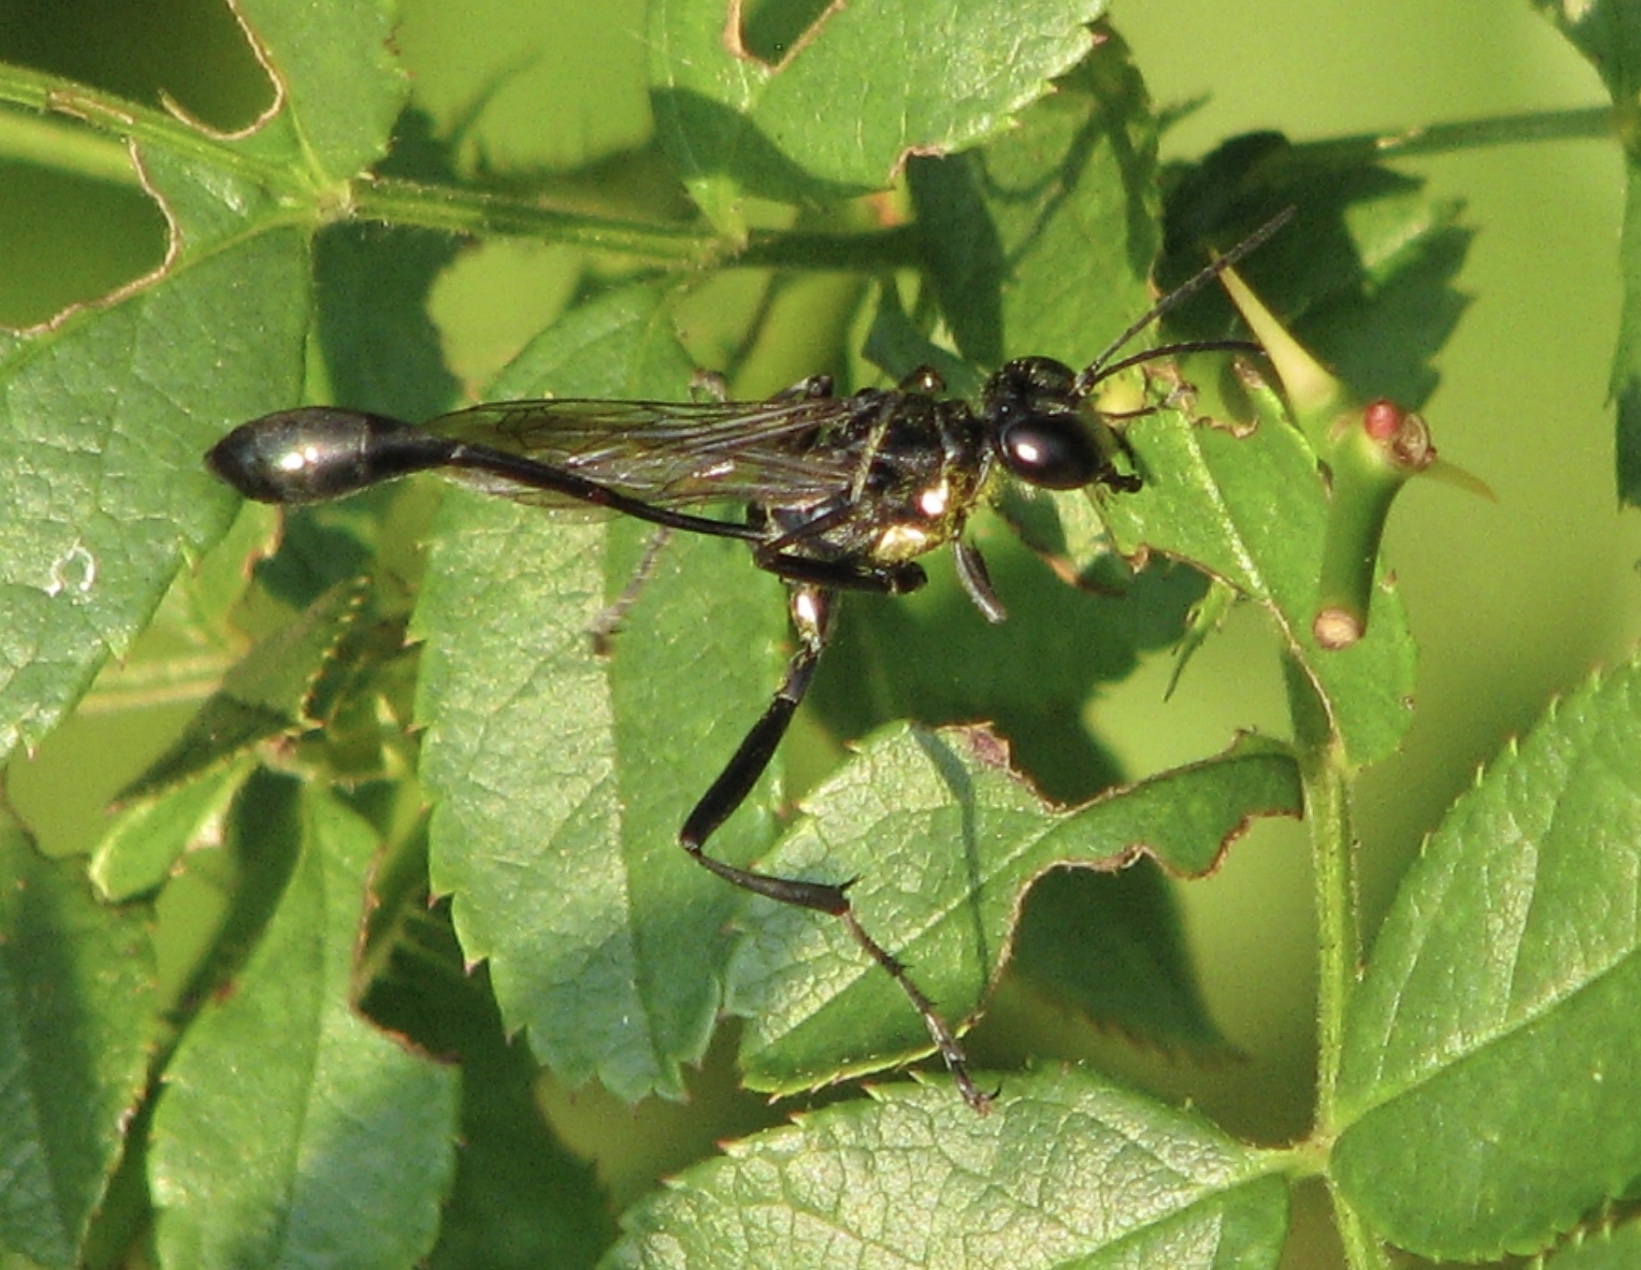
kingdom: Animalia
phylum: Arthropoda
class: Insecta
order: Hymenoptera
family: Sphecidae
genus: Eremnophila
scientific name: Eremnophila aureonotata
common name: Gold-marked thread-waisted wasp
